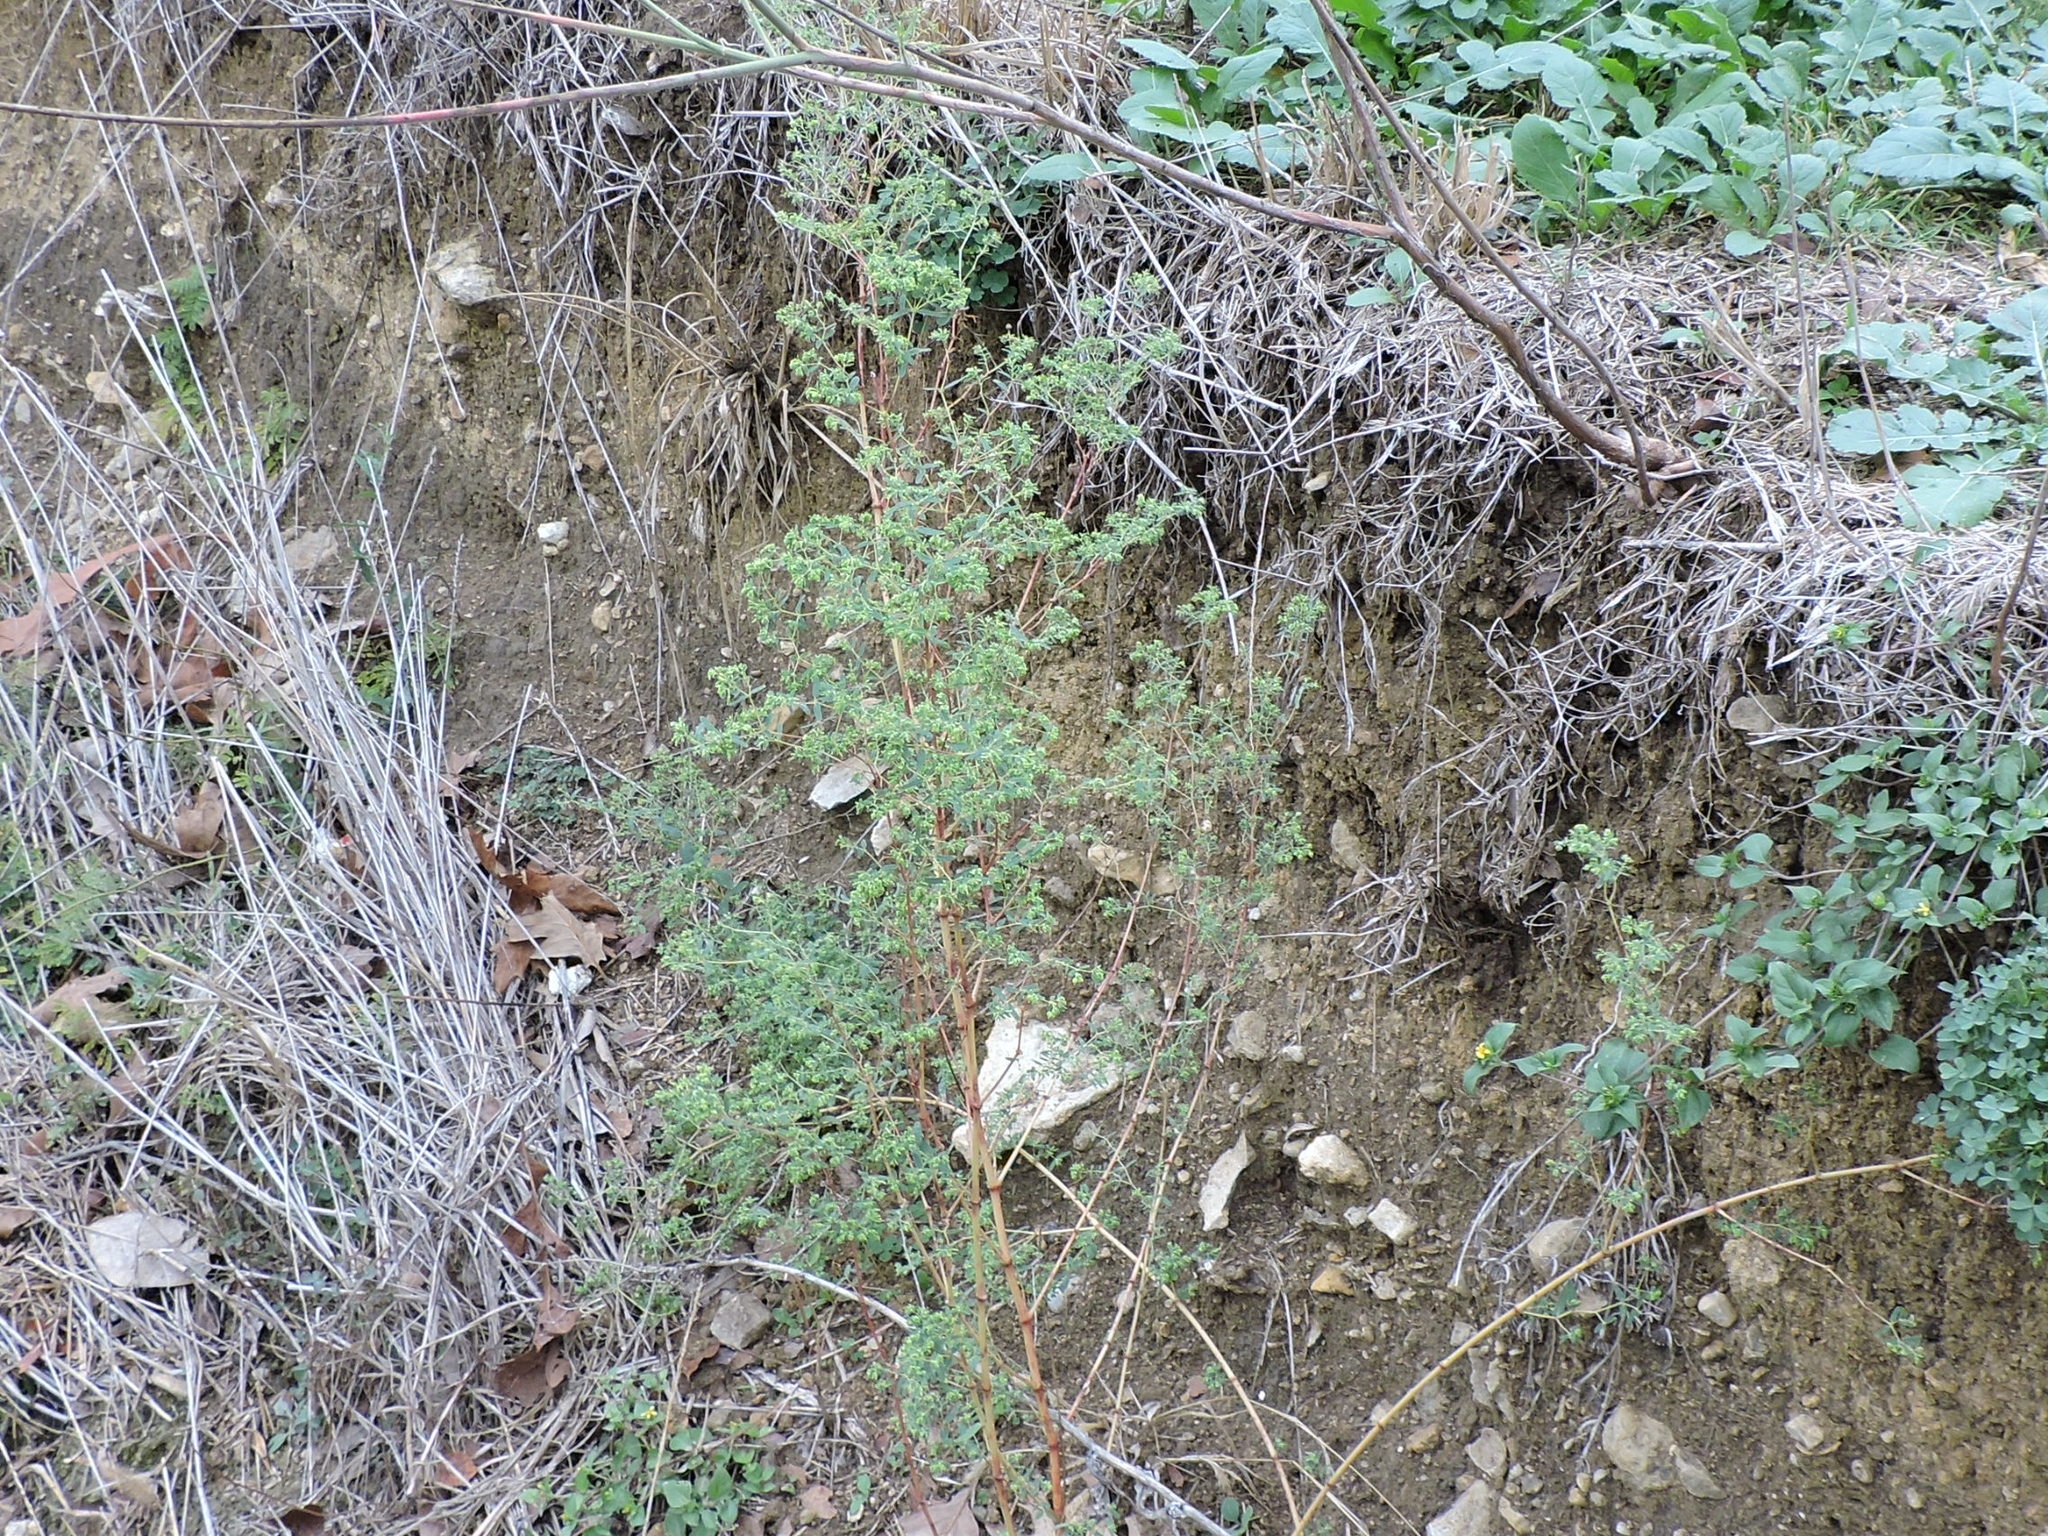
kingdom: Plantae
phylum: Tracheophyta
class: Magnoliopsida
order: Malpighiales
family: Euphorbiaceae
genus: Euphorbia
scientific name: Euphorbia hyssopifolia
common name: Hyssopleaf sandmat
